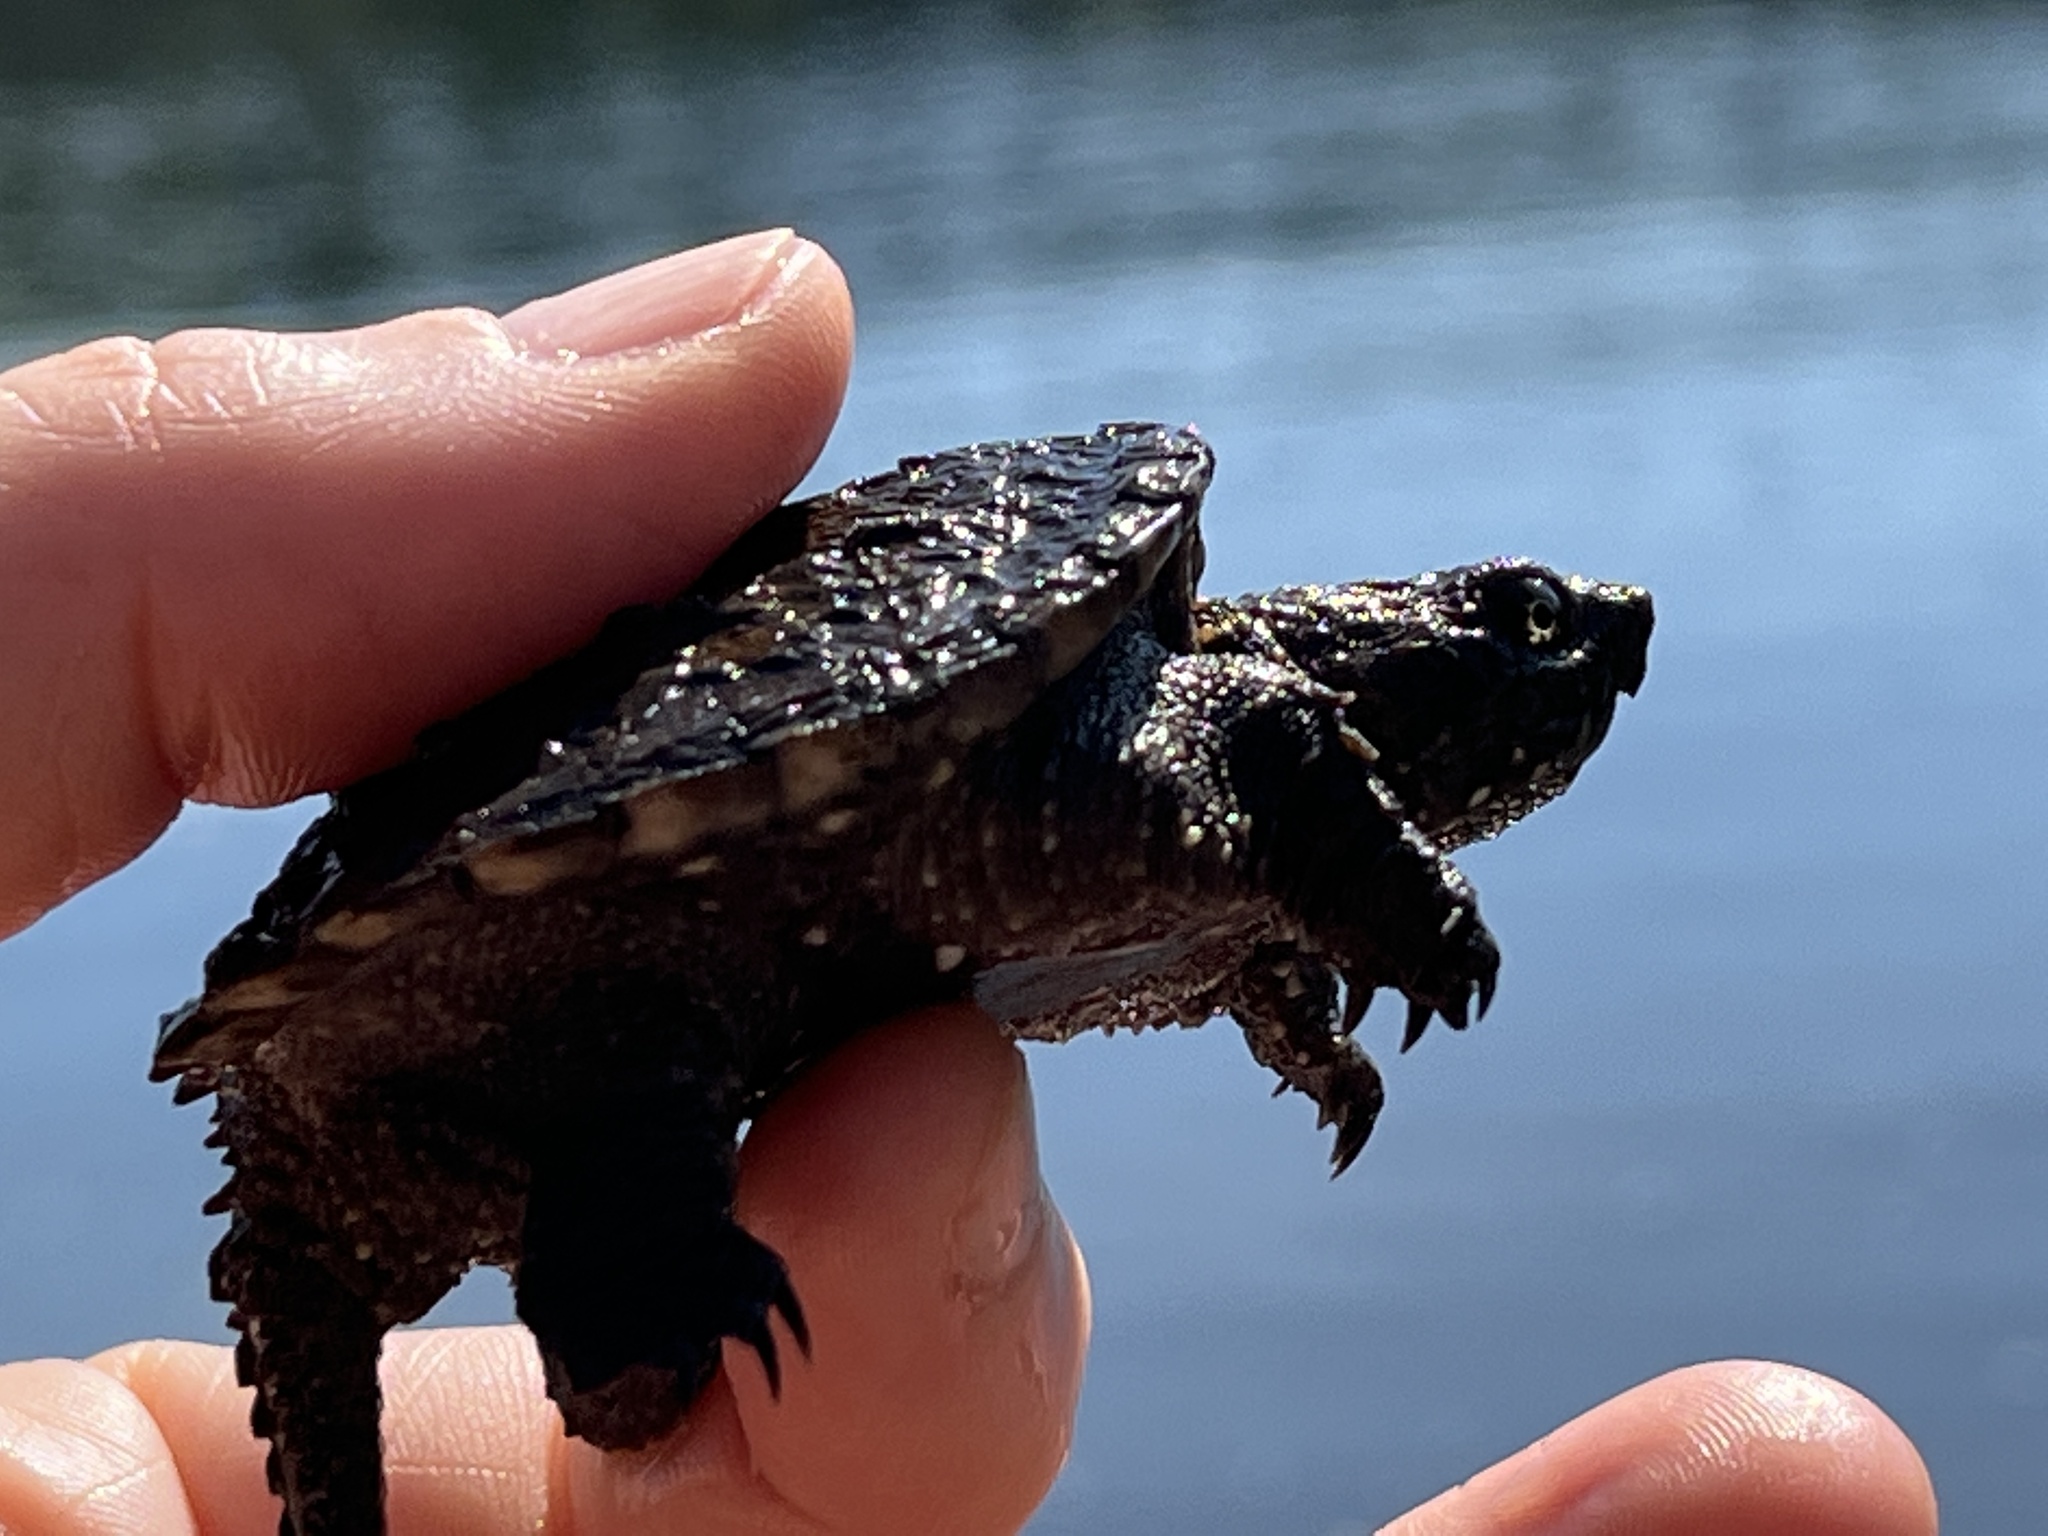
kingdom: Animalia
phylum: Chordata
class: Testudines
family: Chelydridae
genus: Chelydra
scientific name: Chelydra serpentina
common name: Common snapping turtle
